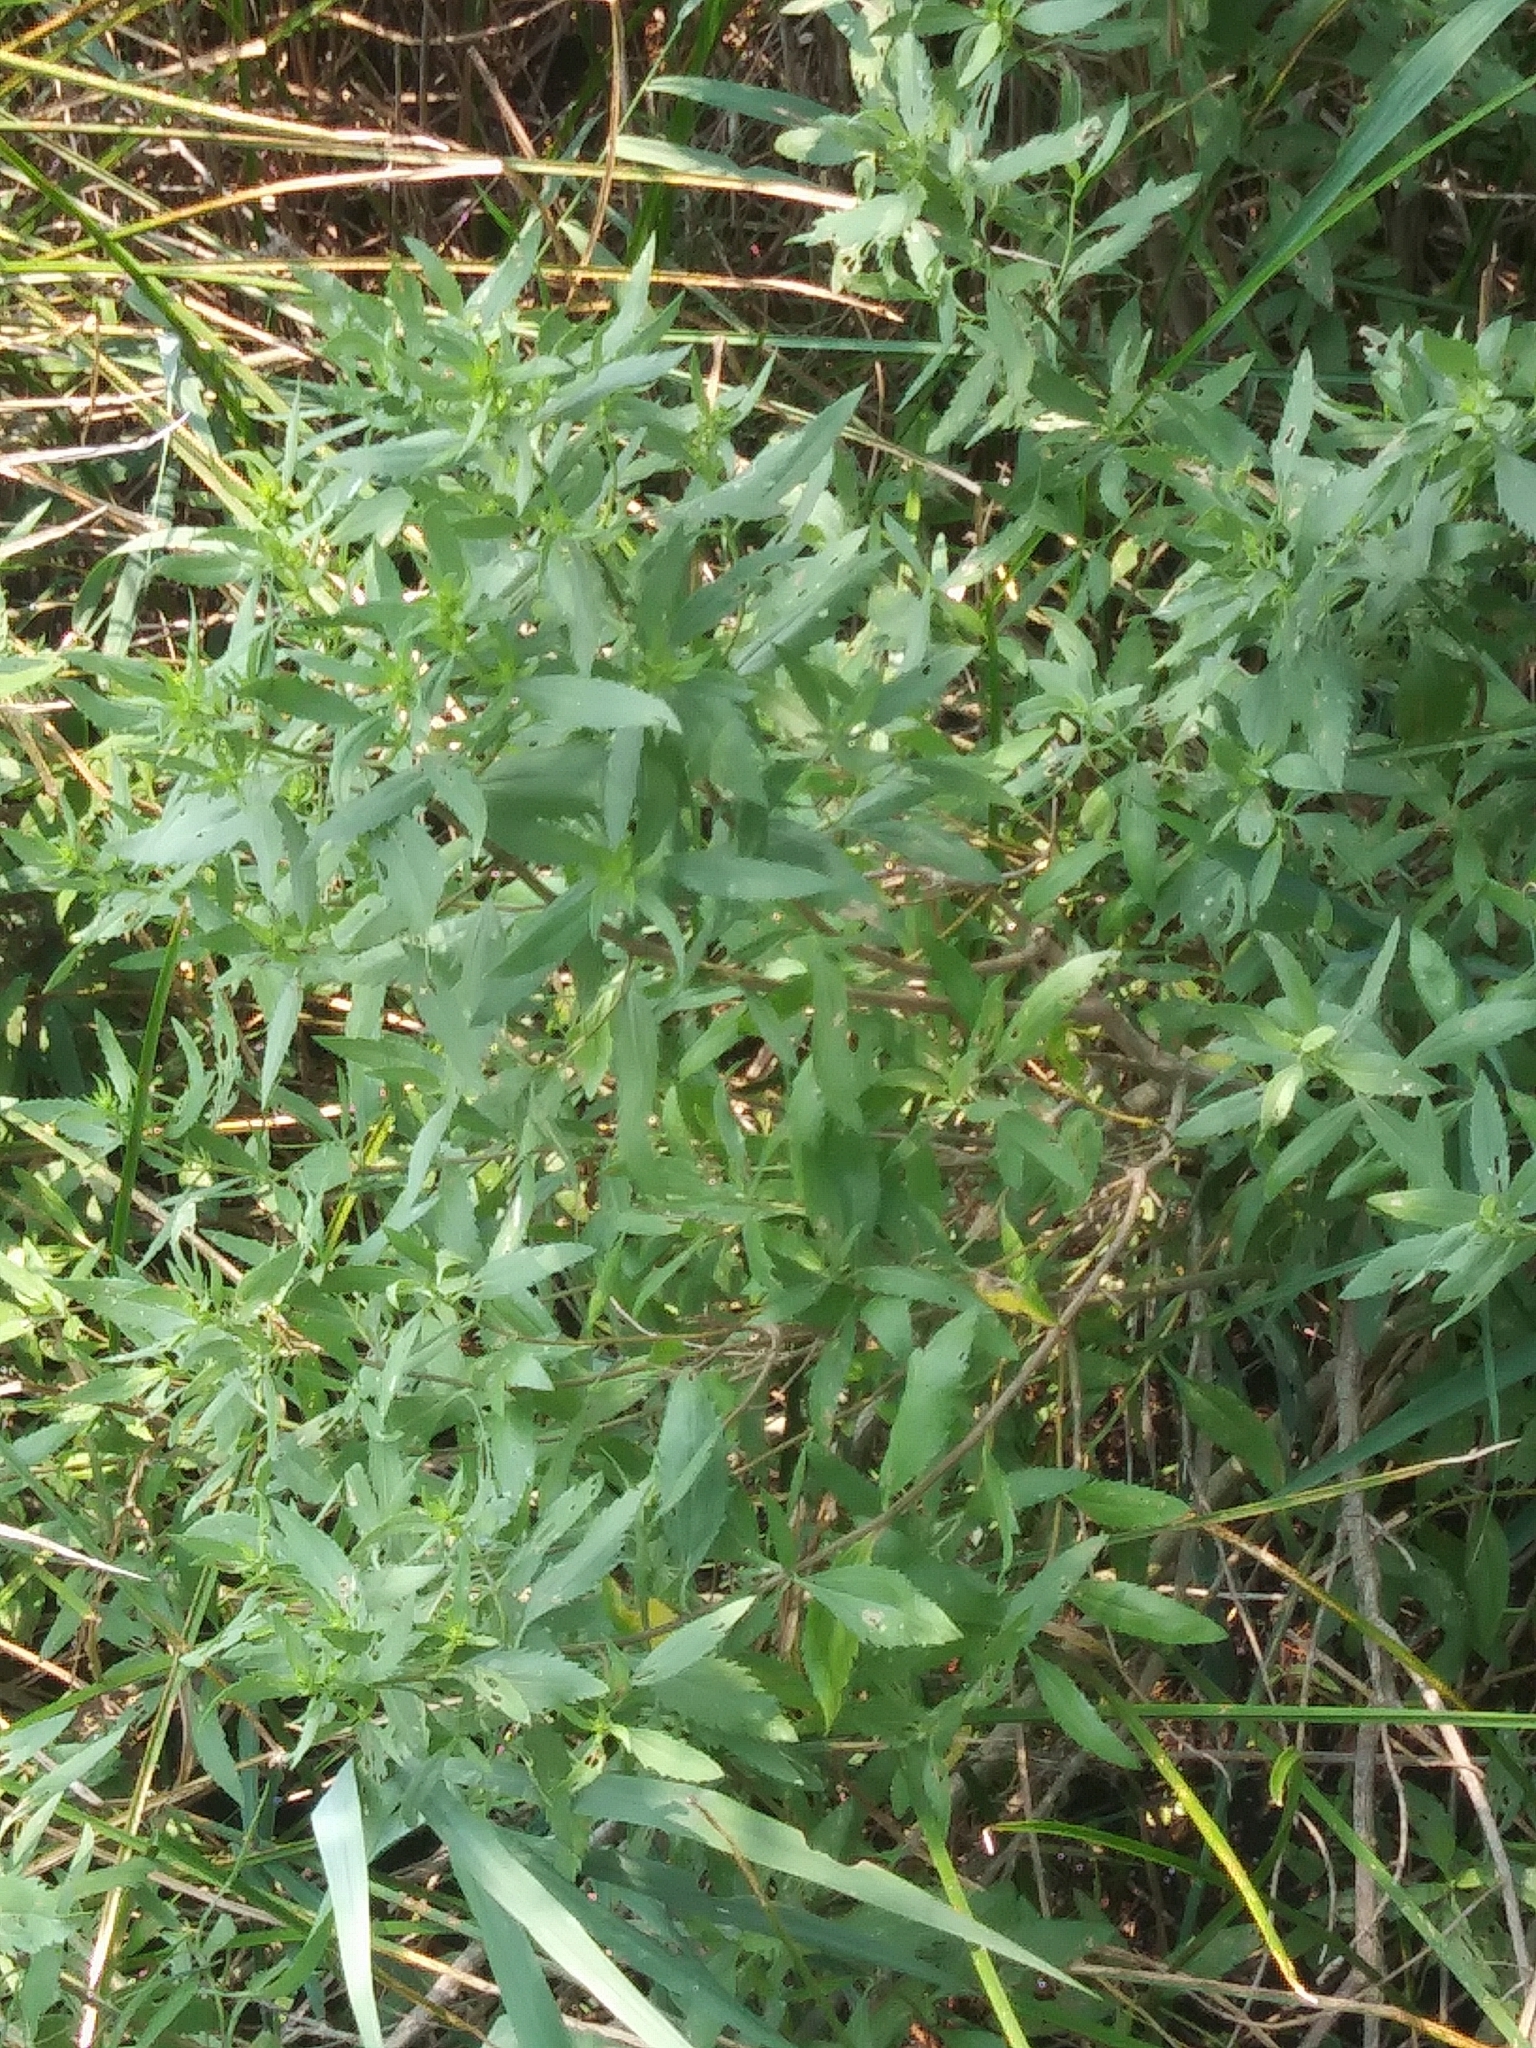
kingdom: Plantae
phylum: Tracheophyta
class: Magnoliopsida
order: Asterales
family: Asteraceae
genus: Iva
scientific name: Iva frutescens
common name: Big-leaved marsh-elder
